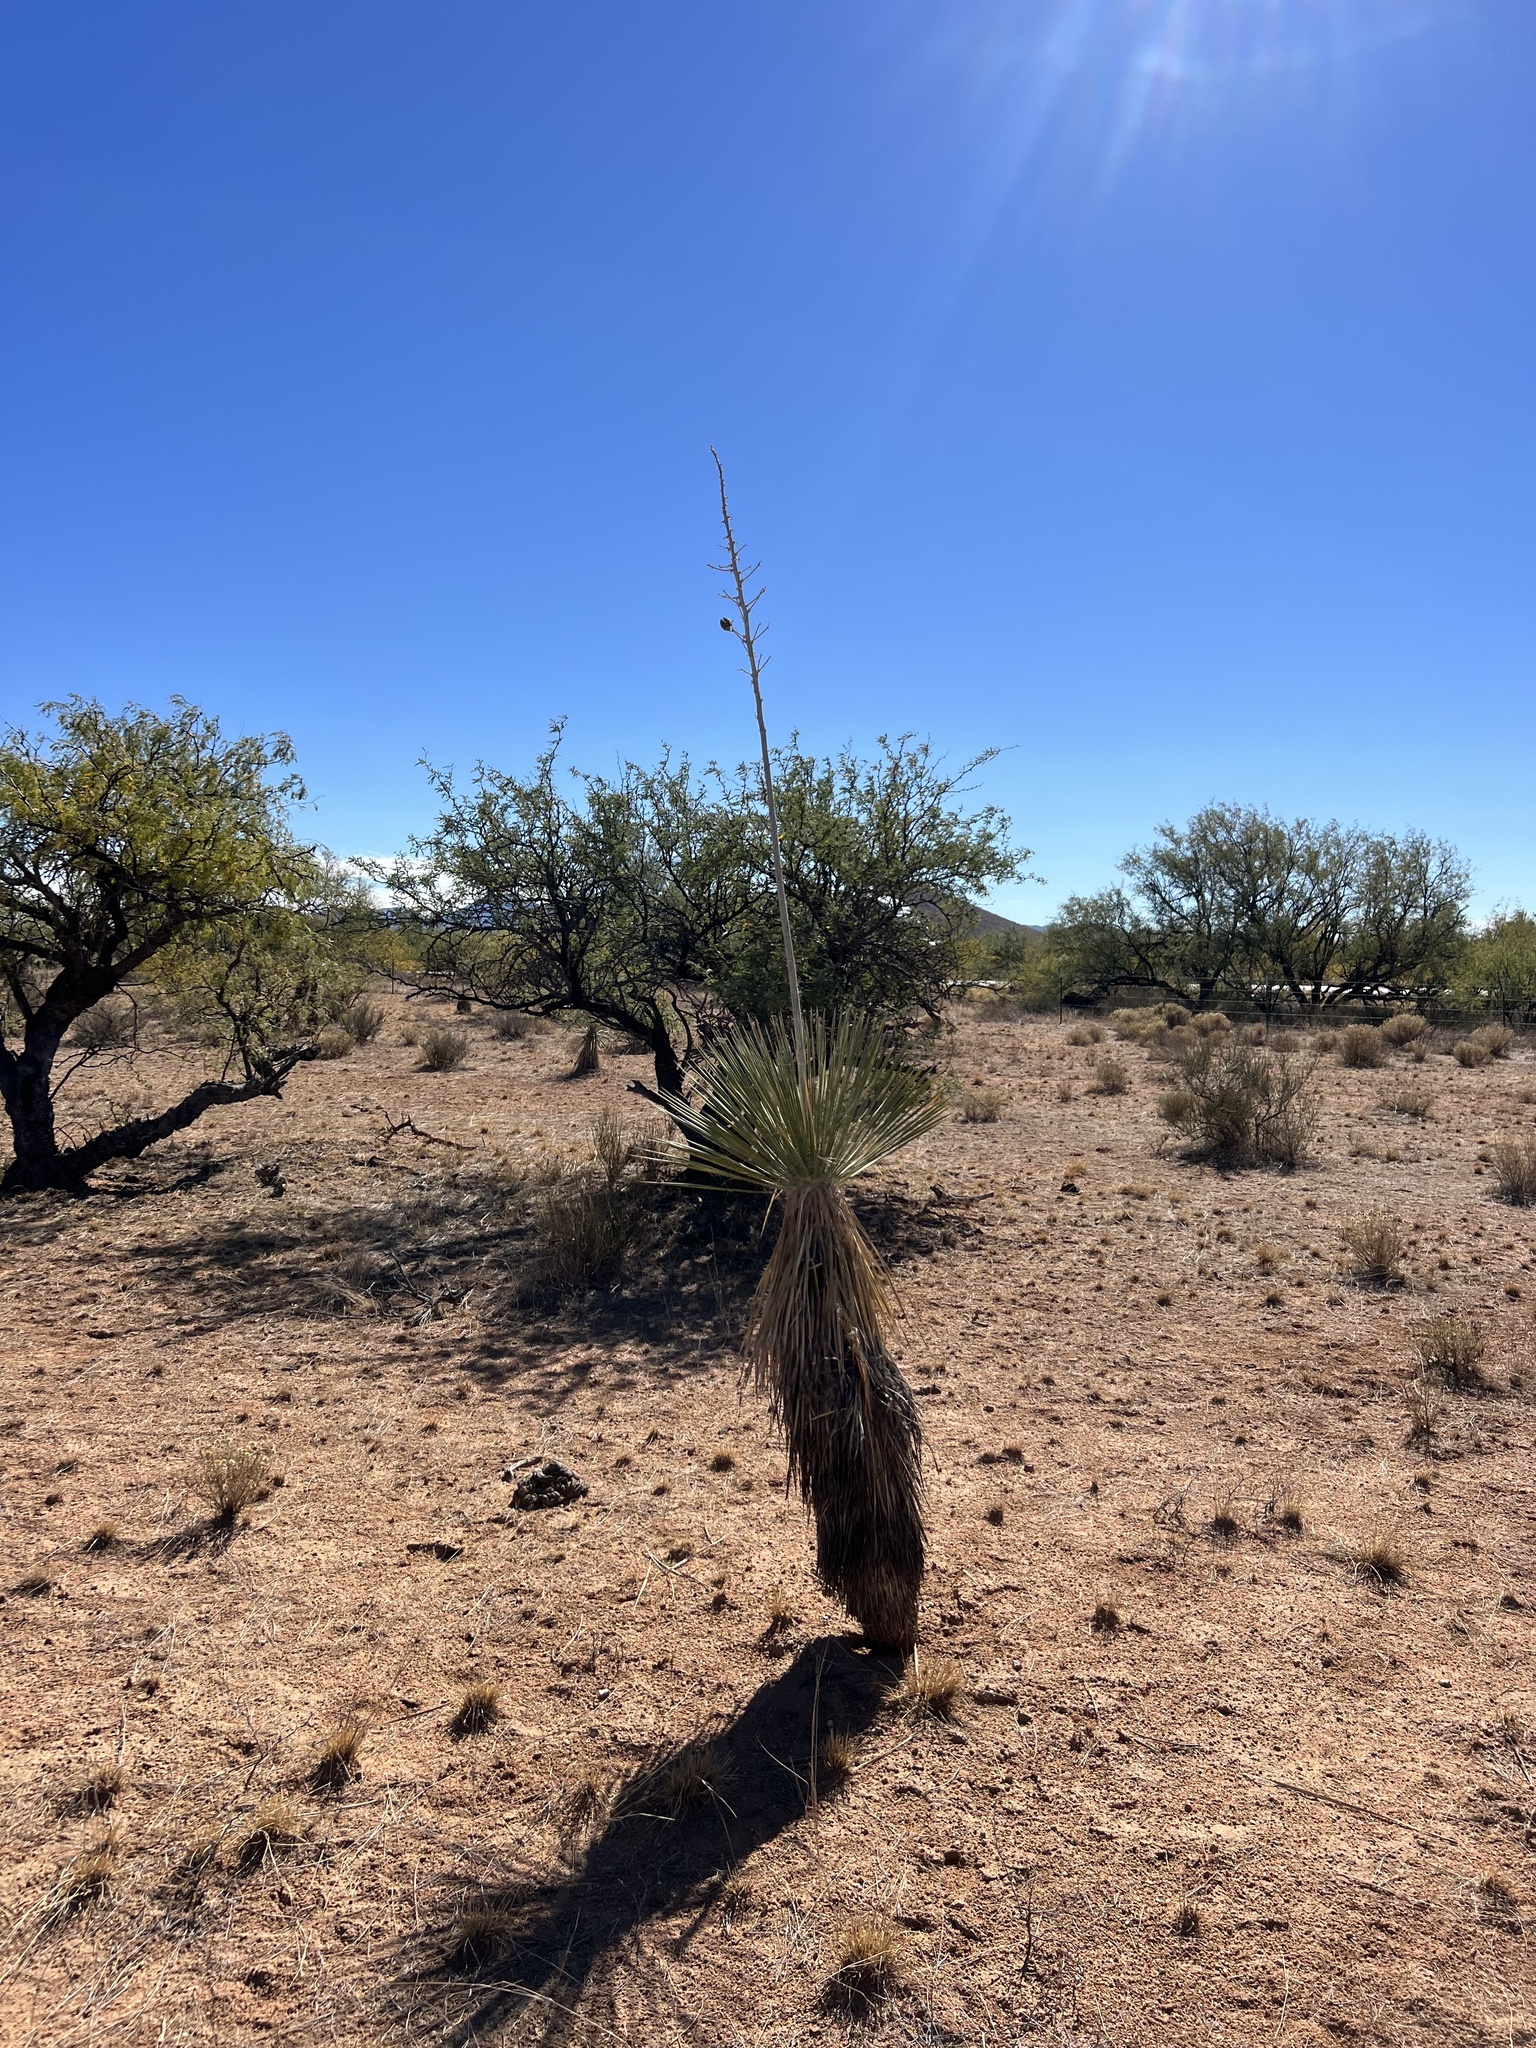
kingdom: Plantae
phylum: Tracheophyta
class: Liliopsida
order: Asparagales
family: Asparagaceae
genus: Yucca
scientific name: Yucca elata
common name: Palmella
